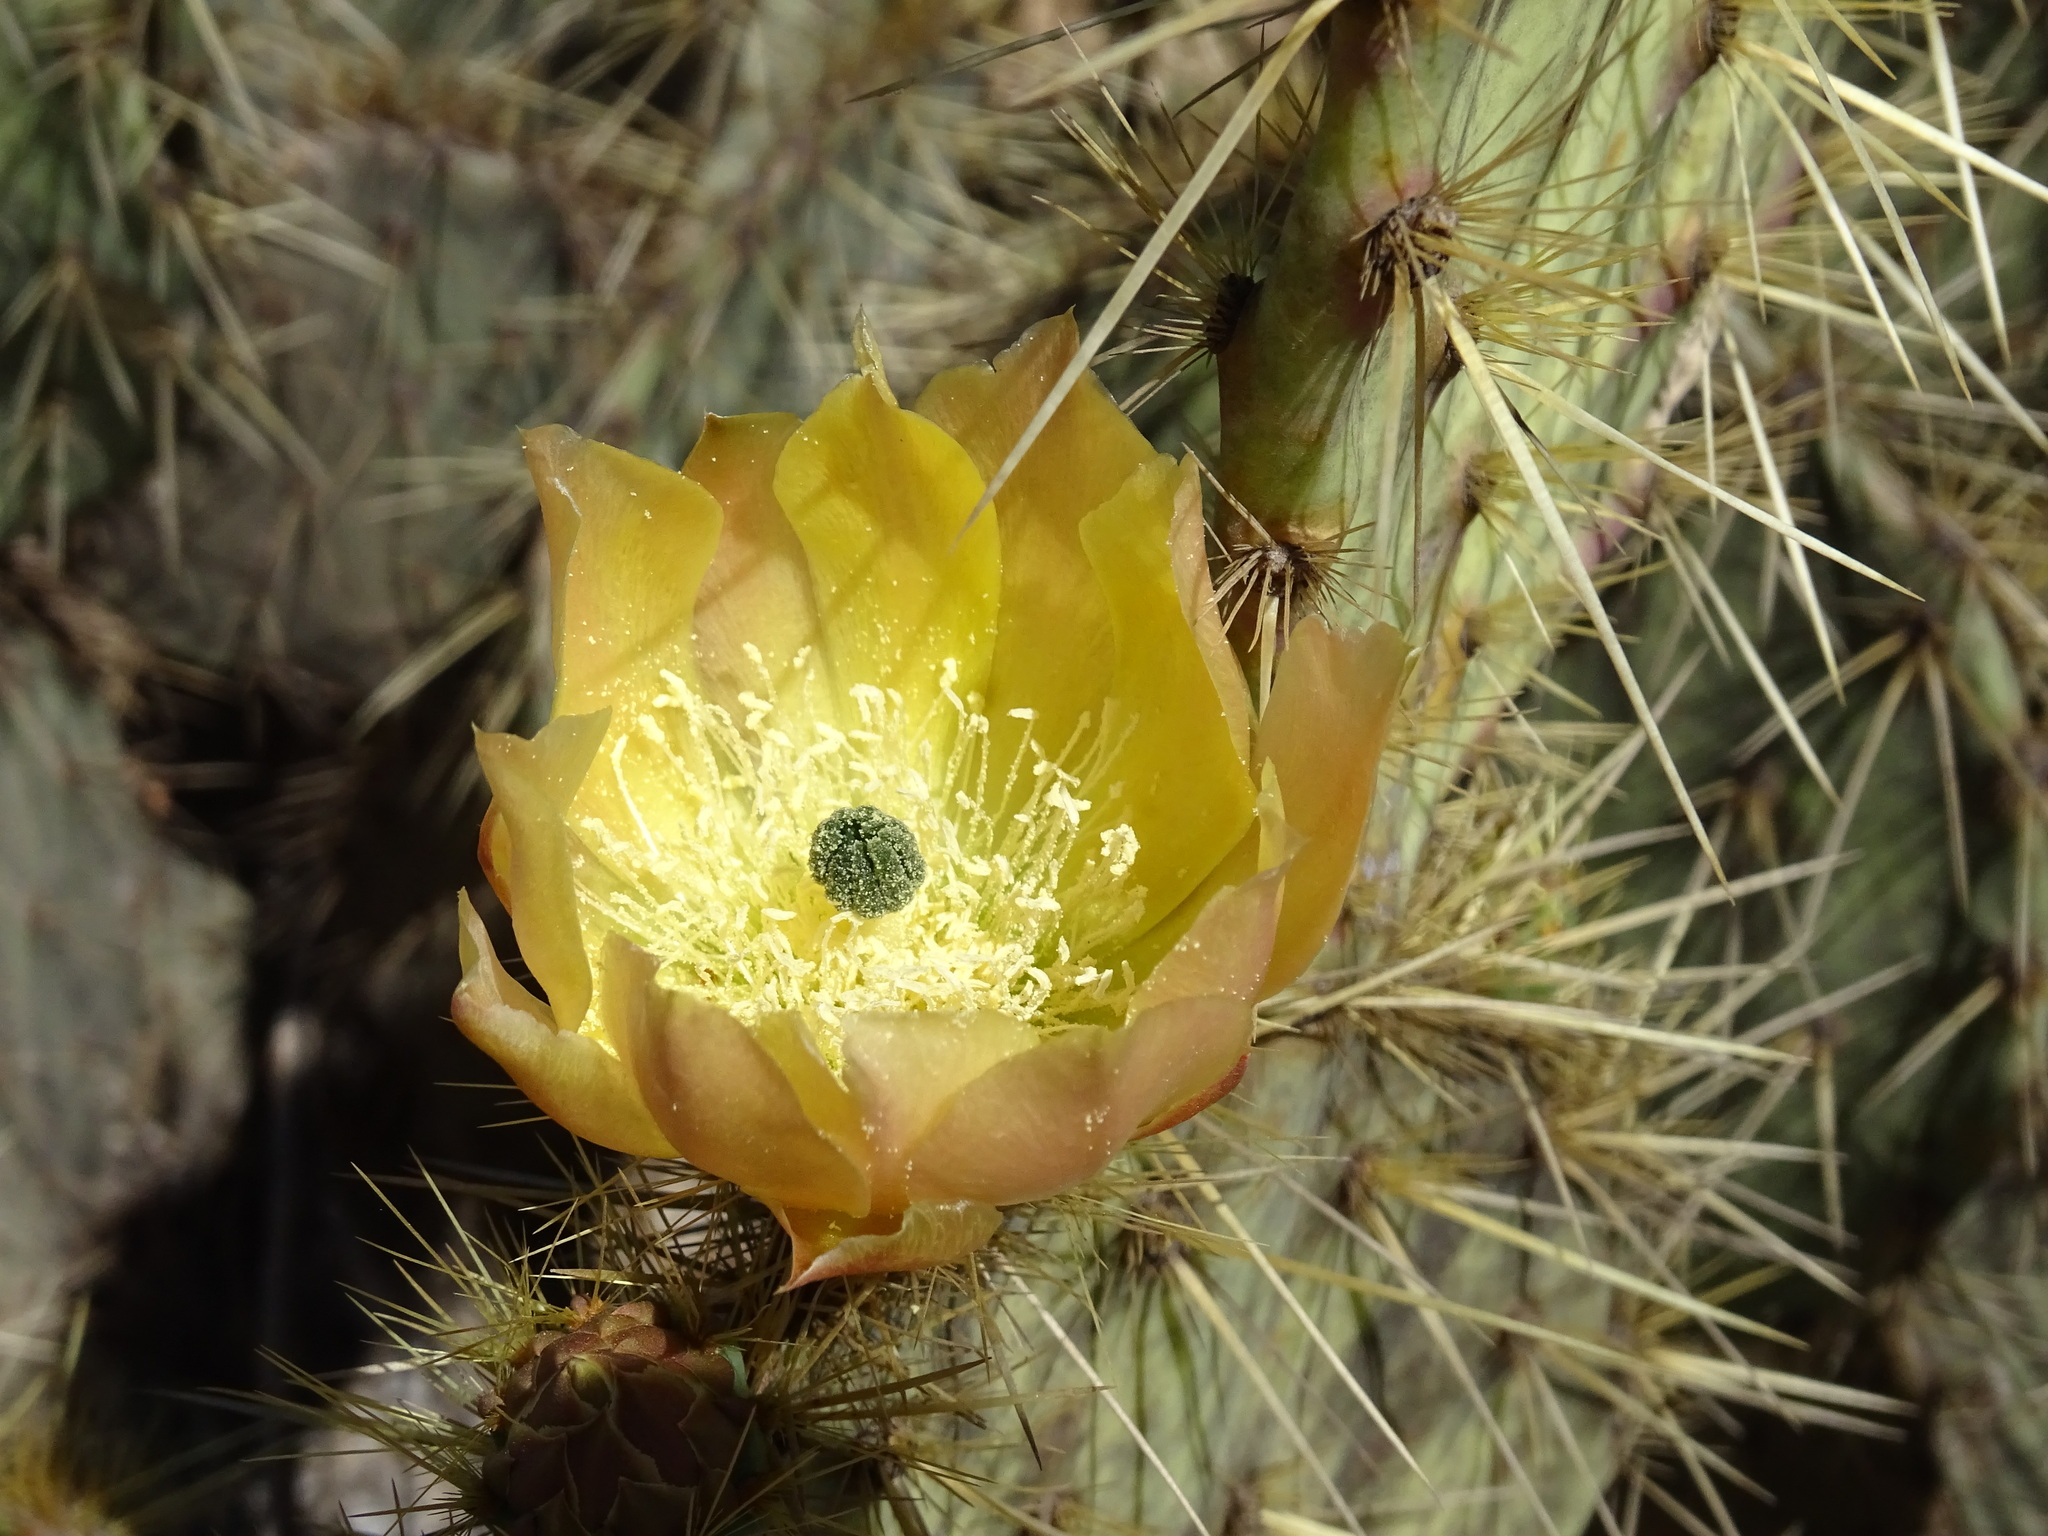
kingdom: Plantae
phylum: Tracheophyta
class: Magnoliopsida
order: Caryophyllales
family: Cactaceae
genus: Opuntia
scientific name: Opuntia engelmannii
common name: Cactus-apple
